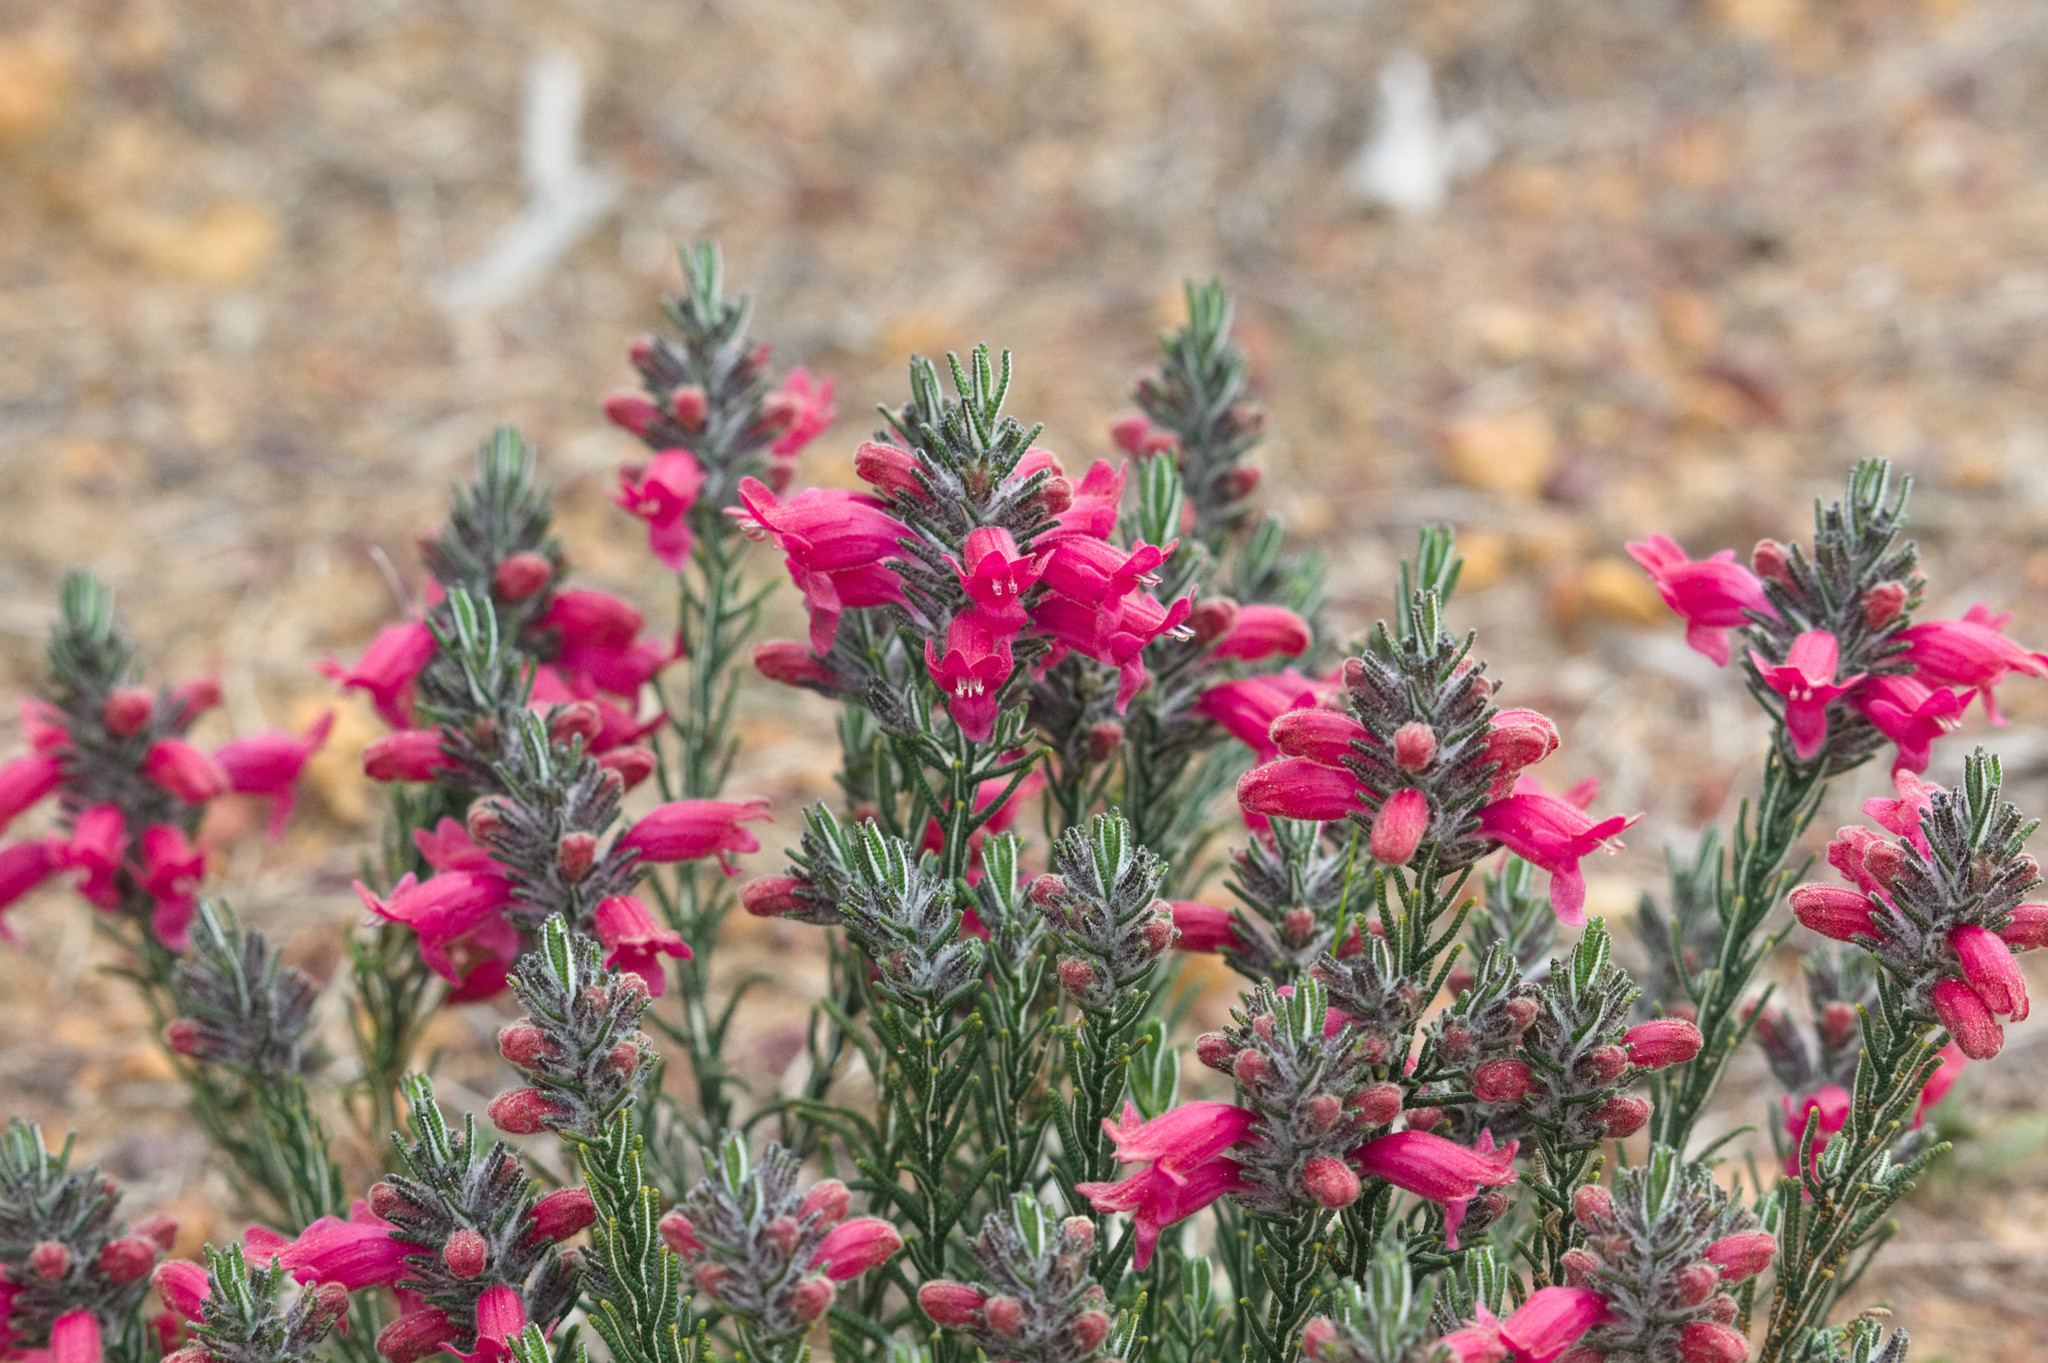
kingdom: Plantae
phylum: Tracheophyta
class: Magnoliopsida
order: Lamiales
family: Lamiaceae
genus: Chloanthes
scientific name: Chloanthes coccinea
